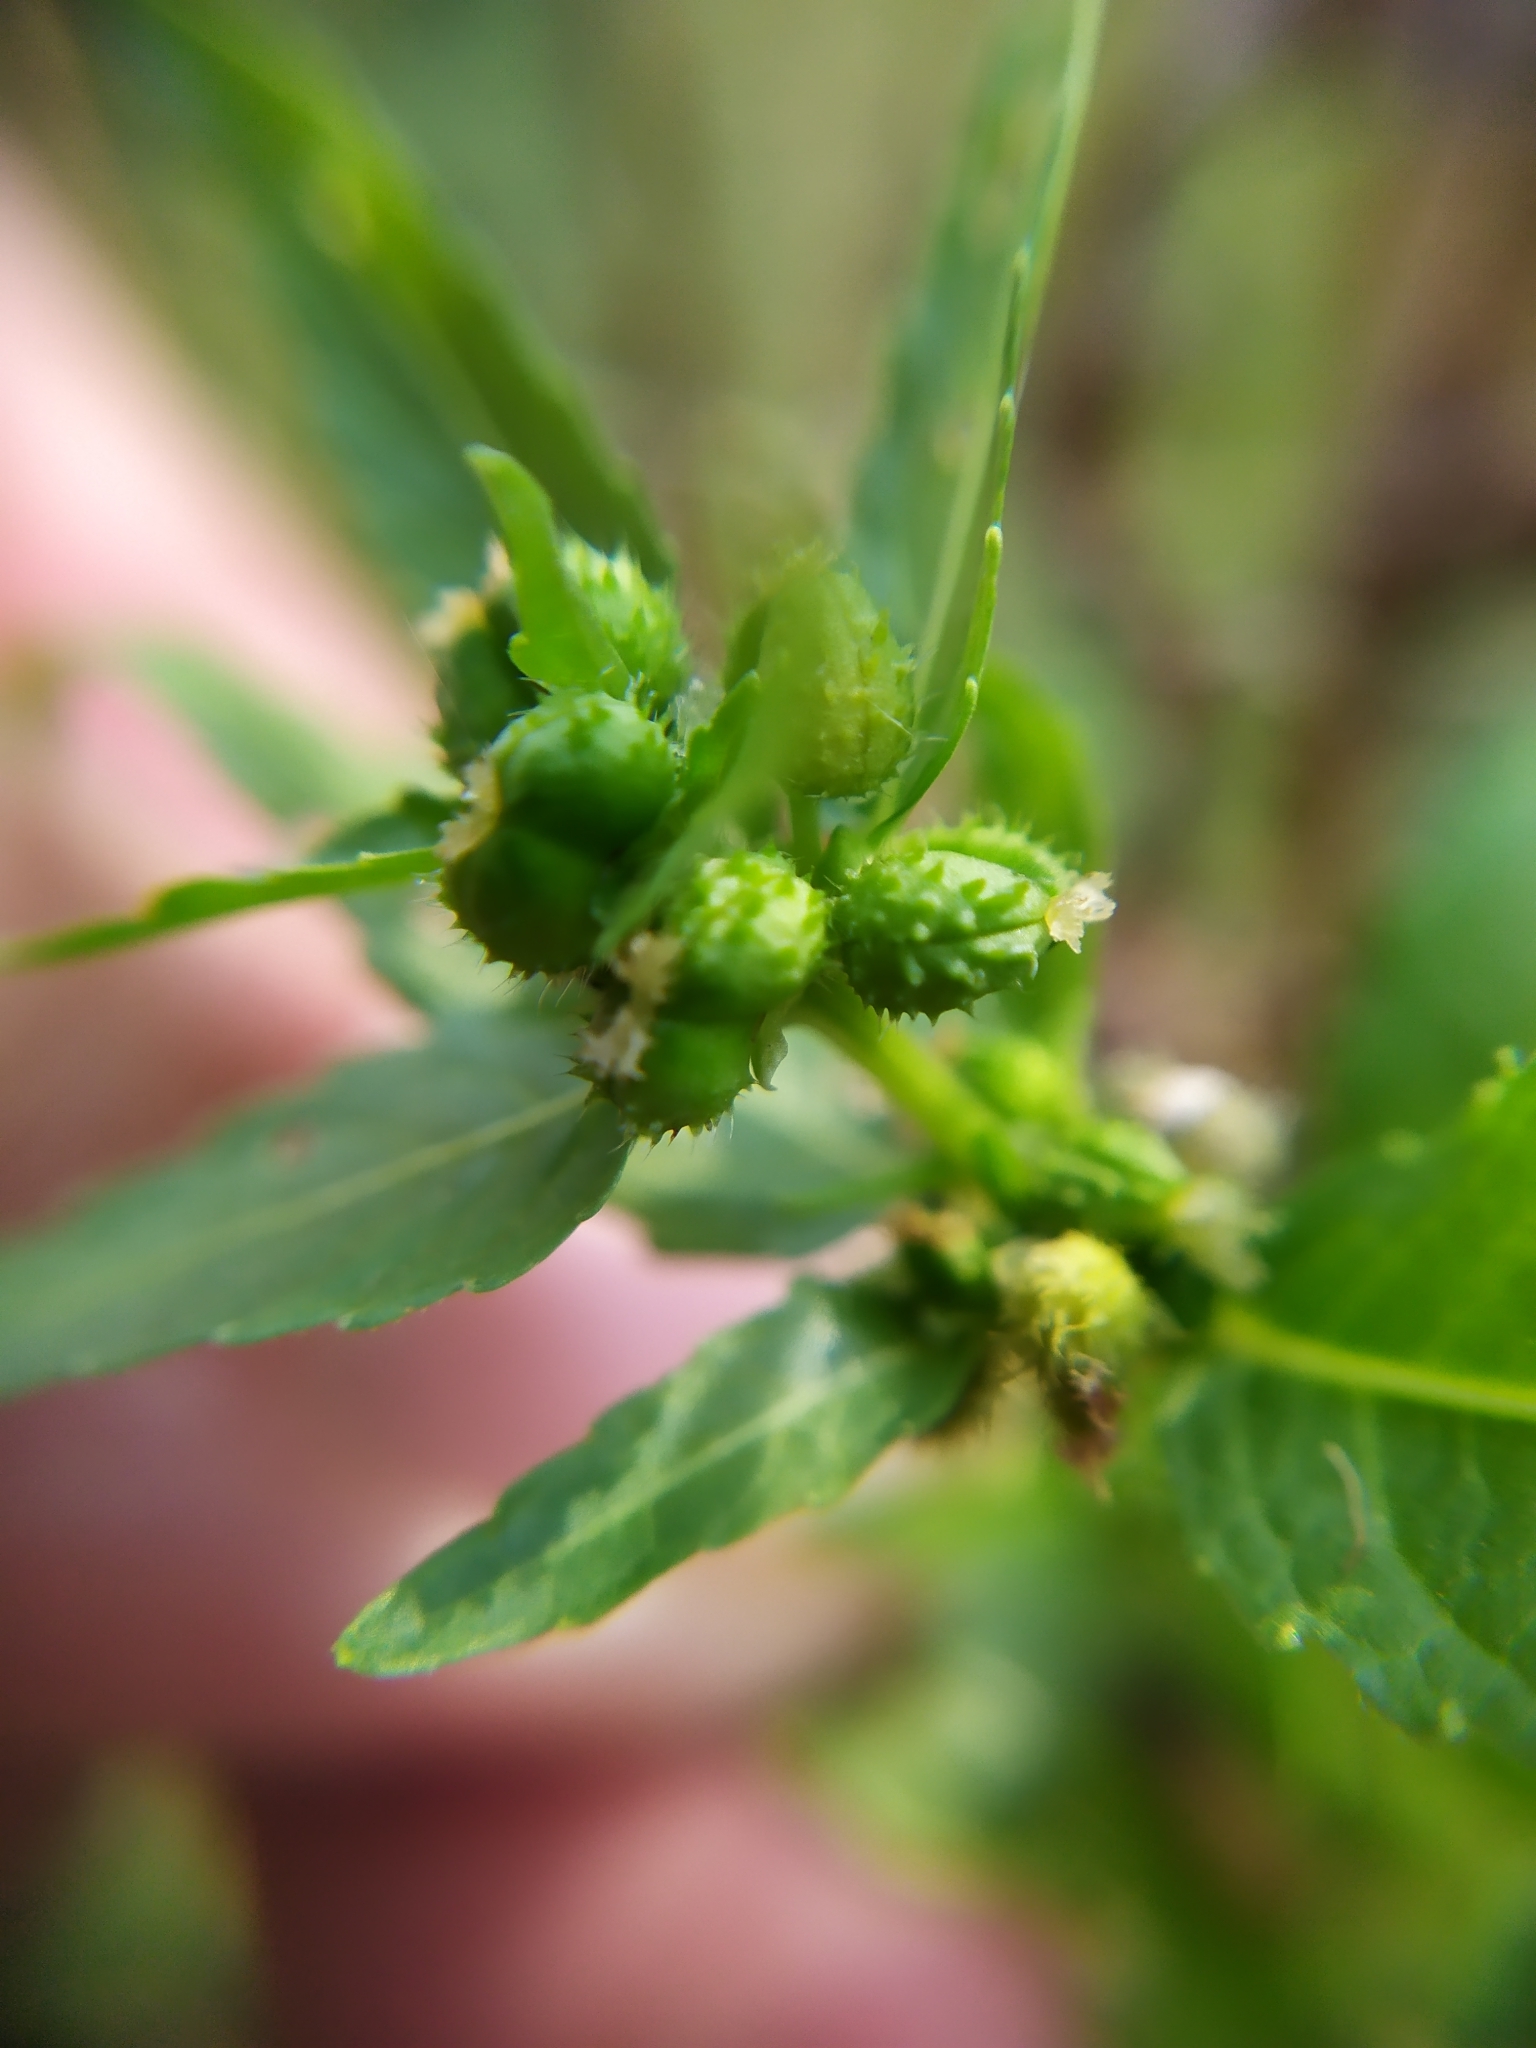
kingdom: Plantae
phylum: Tracheophyta
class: Magnoliopsida
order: Malpighiales
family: Euphorbiaceae
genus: Mercurialis
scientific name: Mercurialis annua
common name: Annual mercury
